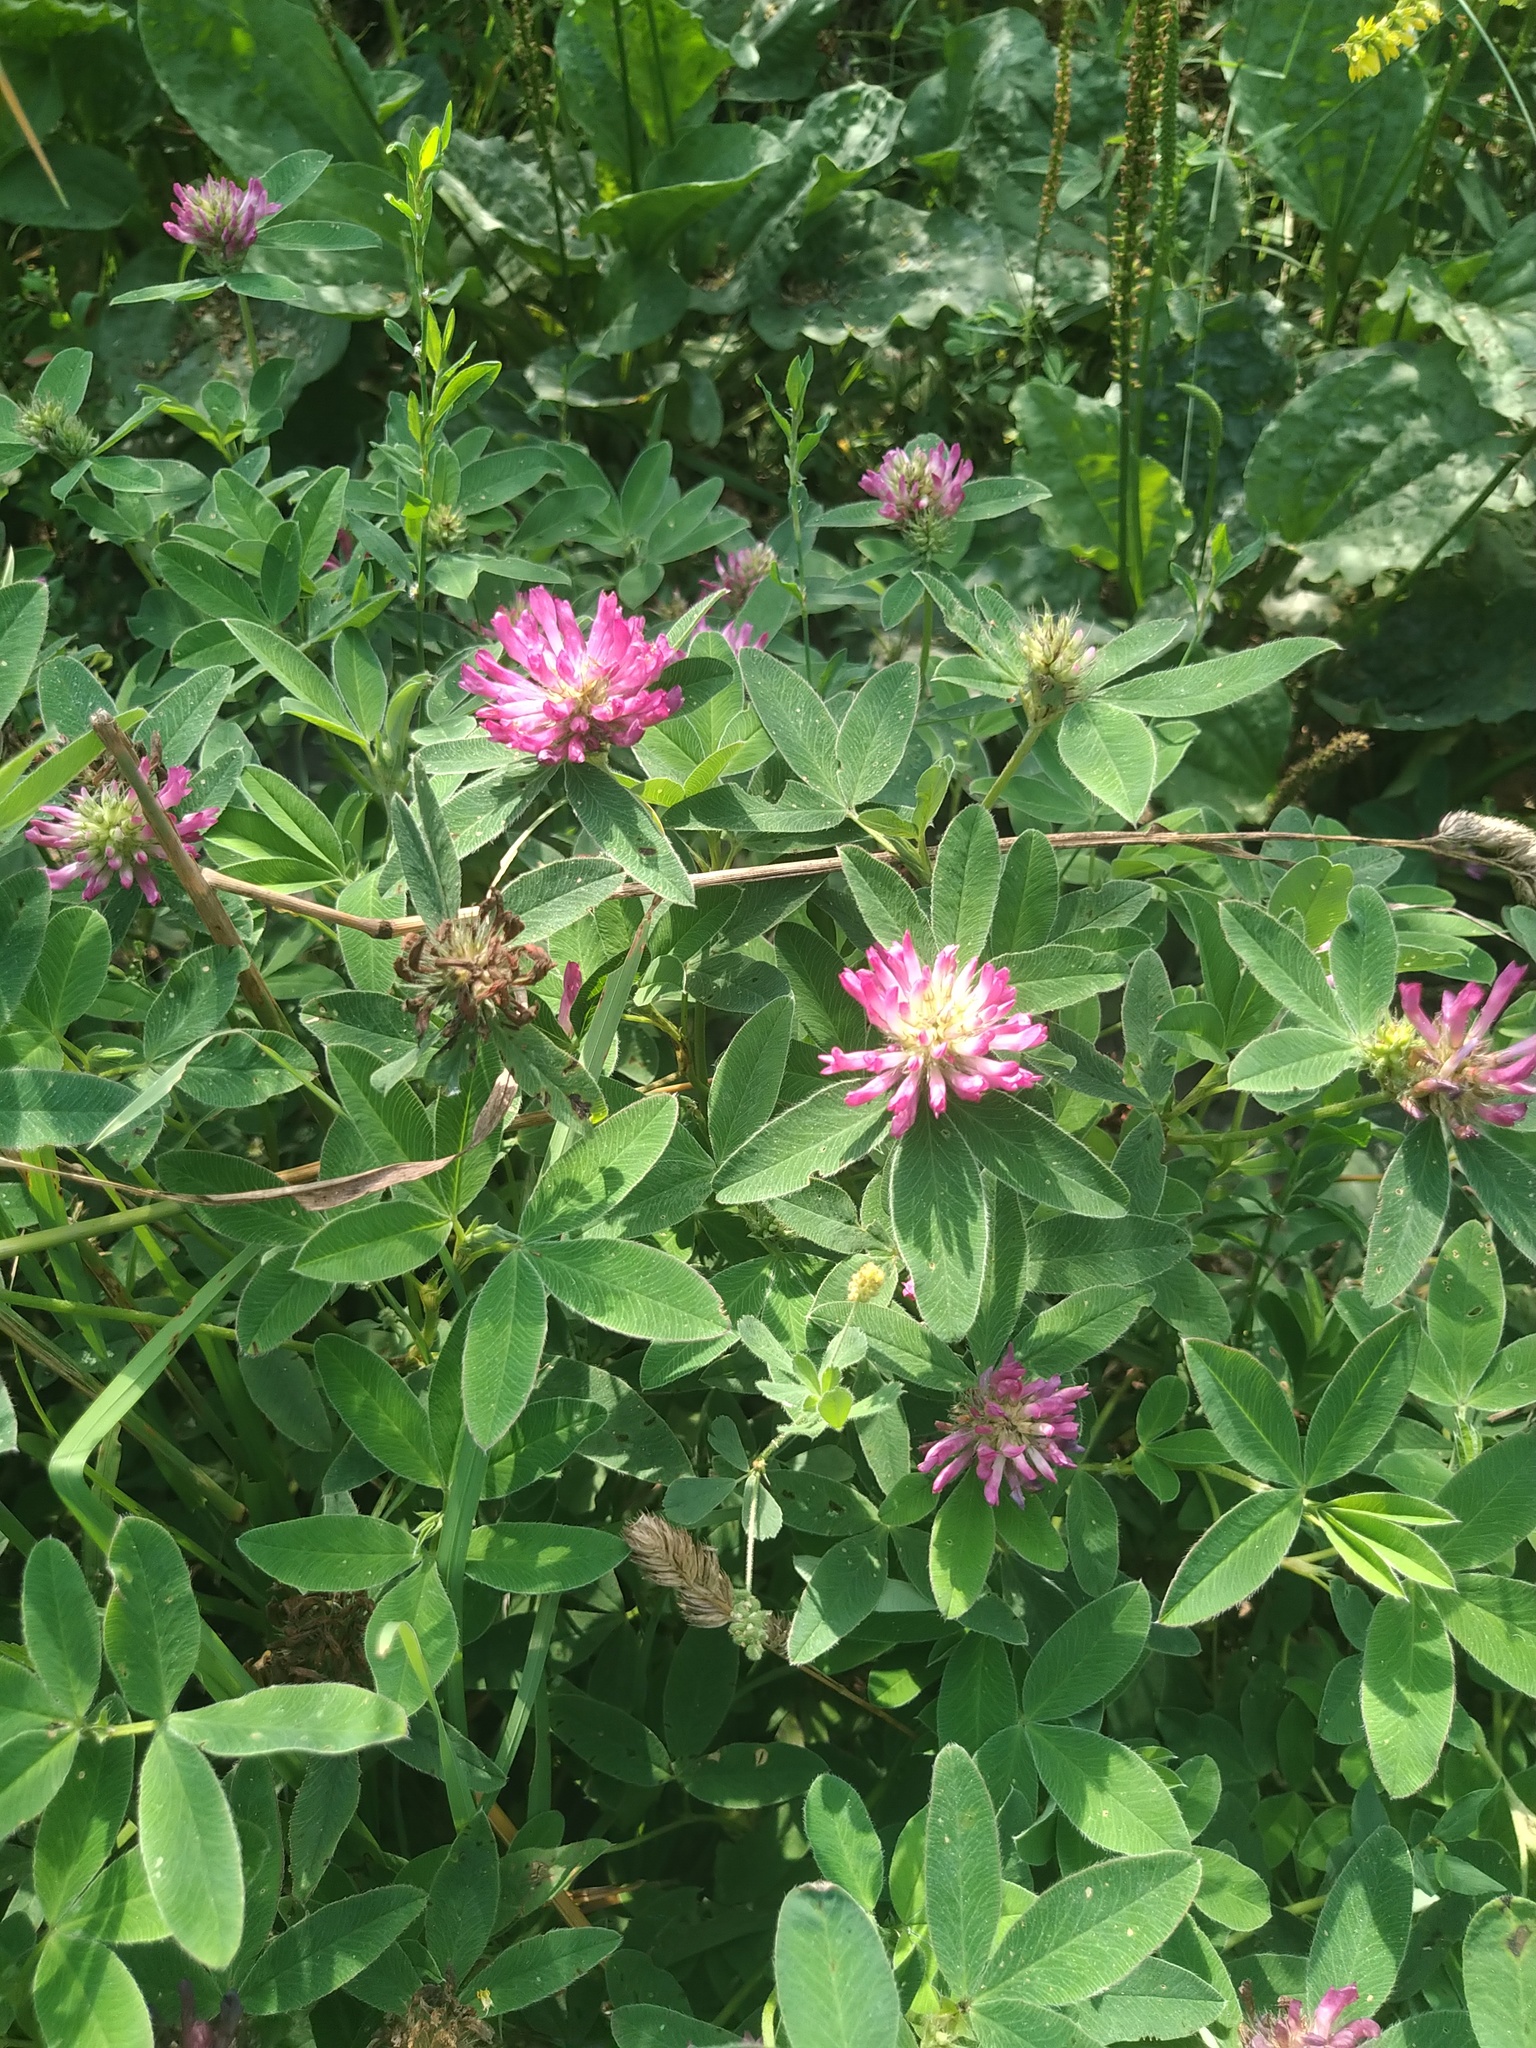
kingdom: Plantae
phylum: Tracheophyta
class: Magnoliopsida
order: Fabales
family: Fabaceae
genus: Trifolium
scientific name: Trifolium medium
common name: Zigzag clover
